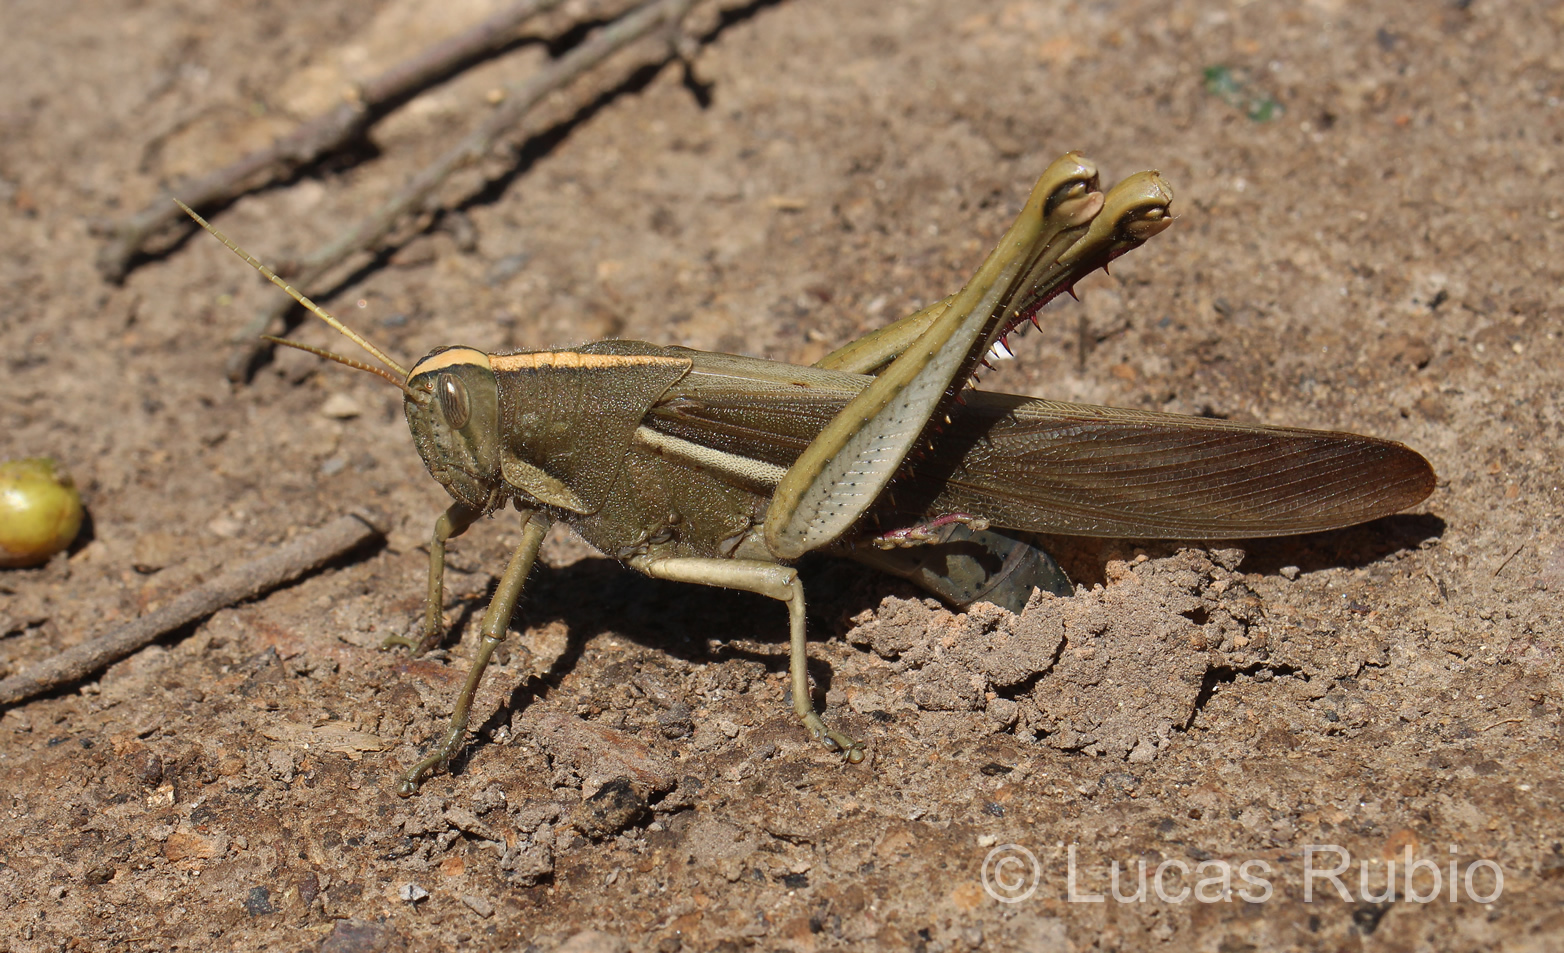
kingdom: Animalia
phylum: Arthropoda
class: Insecta
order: Orthoptera
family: Acrididae
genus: Schistocerca
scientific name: Schistocerca flavofasciata
